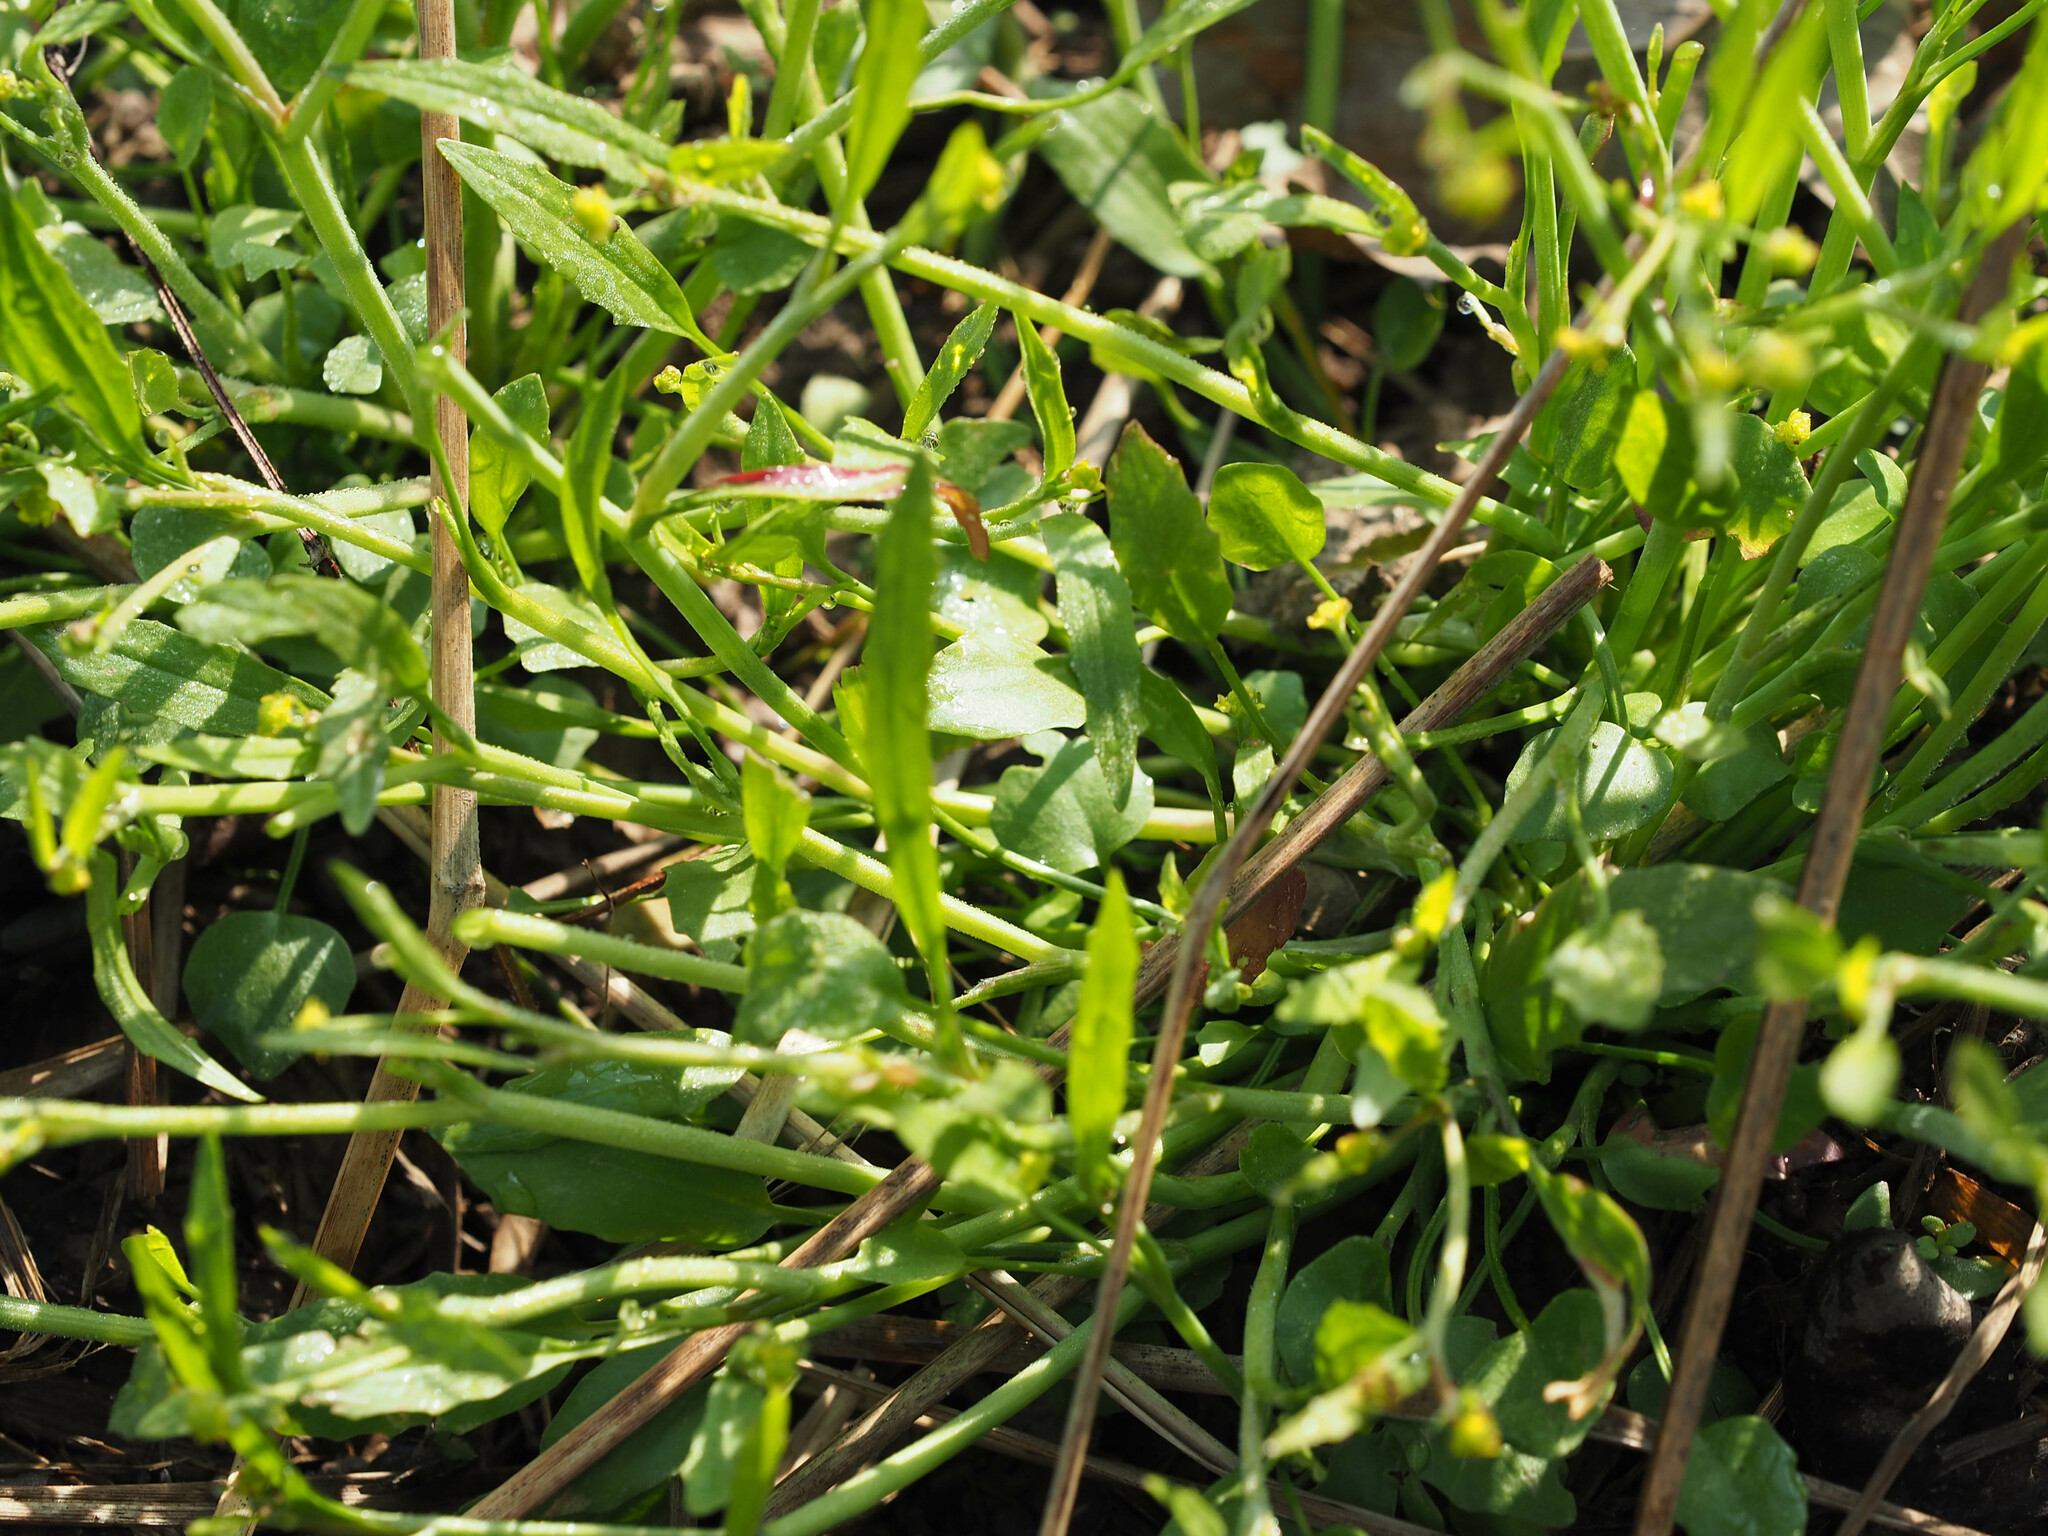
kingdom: Plantae
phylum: Tracheophyta
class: Magnoliopsida
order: Ranunculales
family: Ranunculaceae
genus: Ranunculus
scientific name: Ranunculus pusillus
